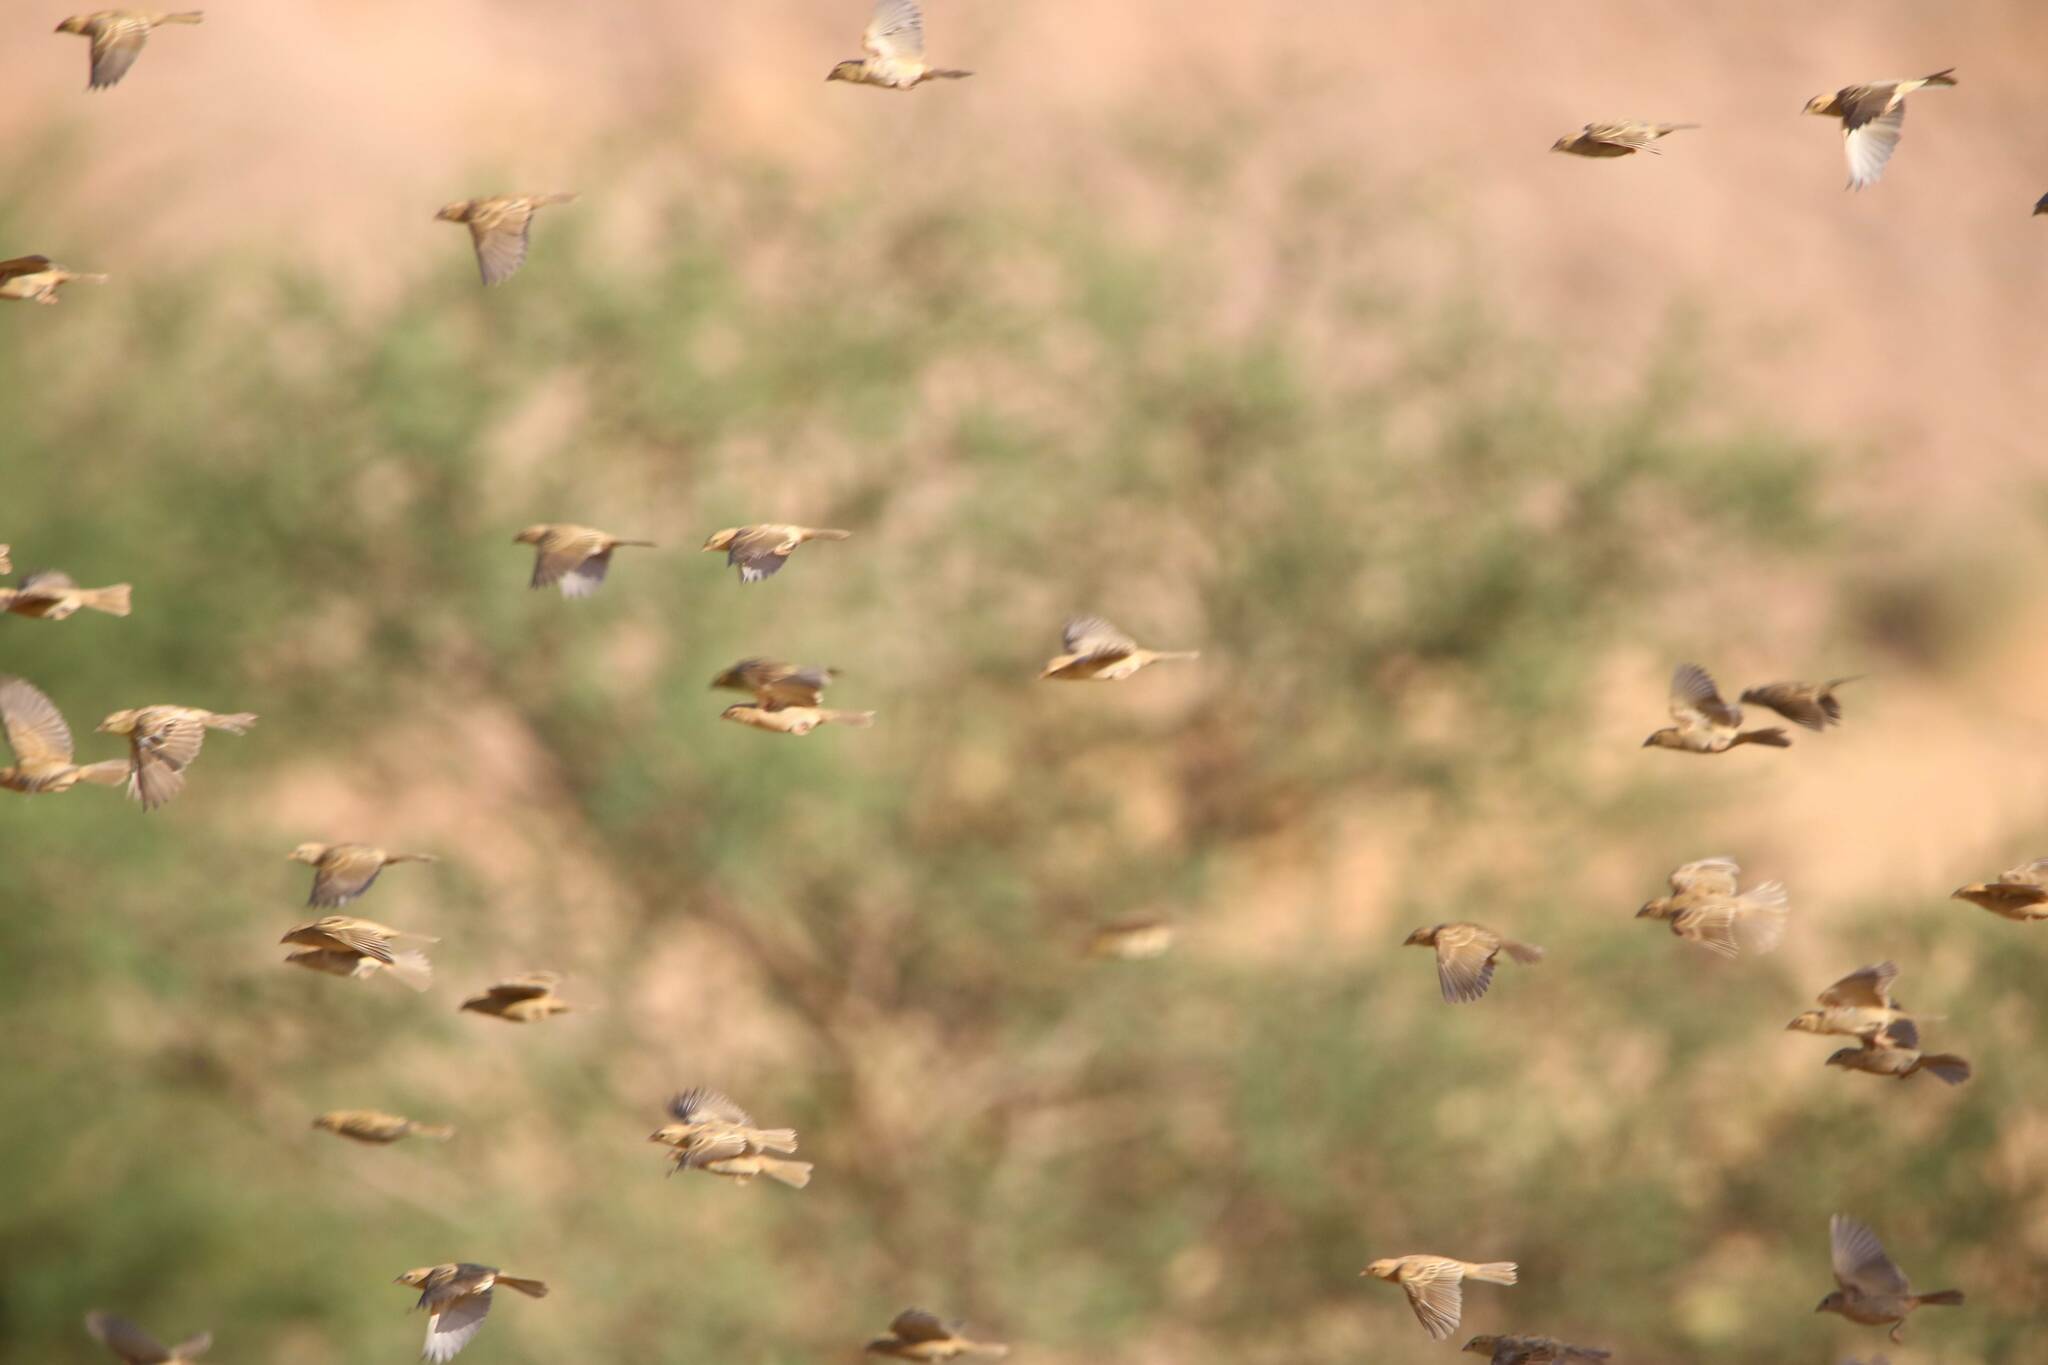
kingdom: Animalia
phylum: Chordata
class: Aves
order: Passeriformes
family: Passeridae
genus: Passer
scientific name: Passer luteus
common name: Sudan golden sparrow
